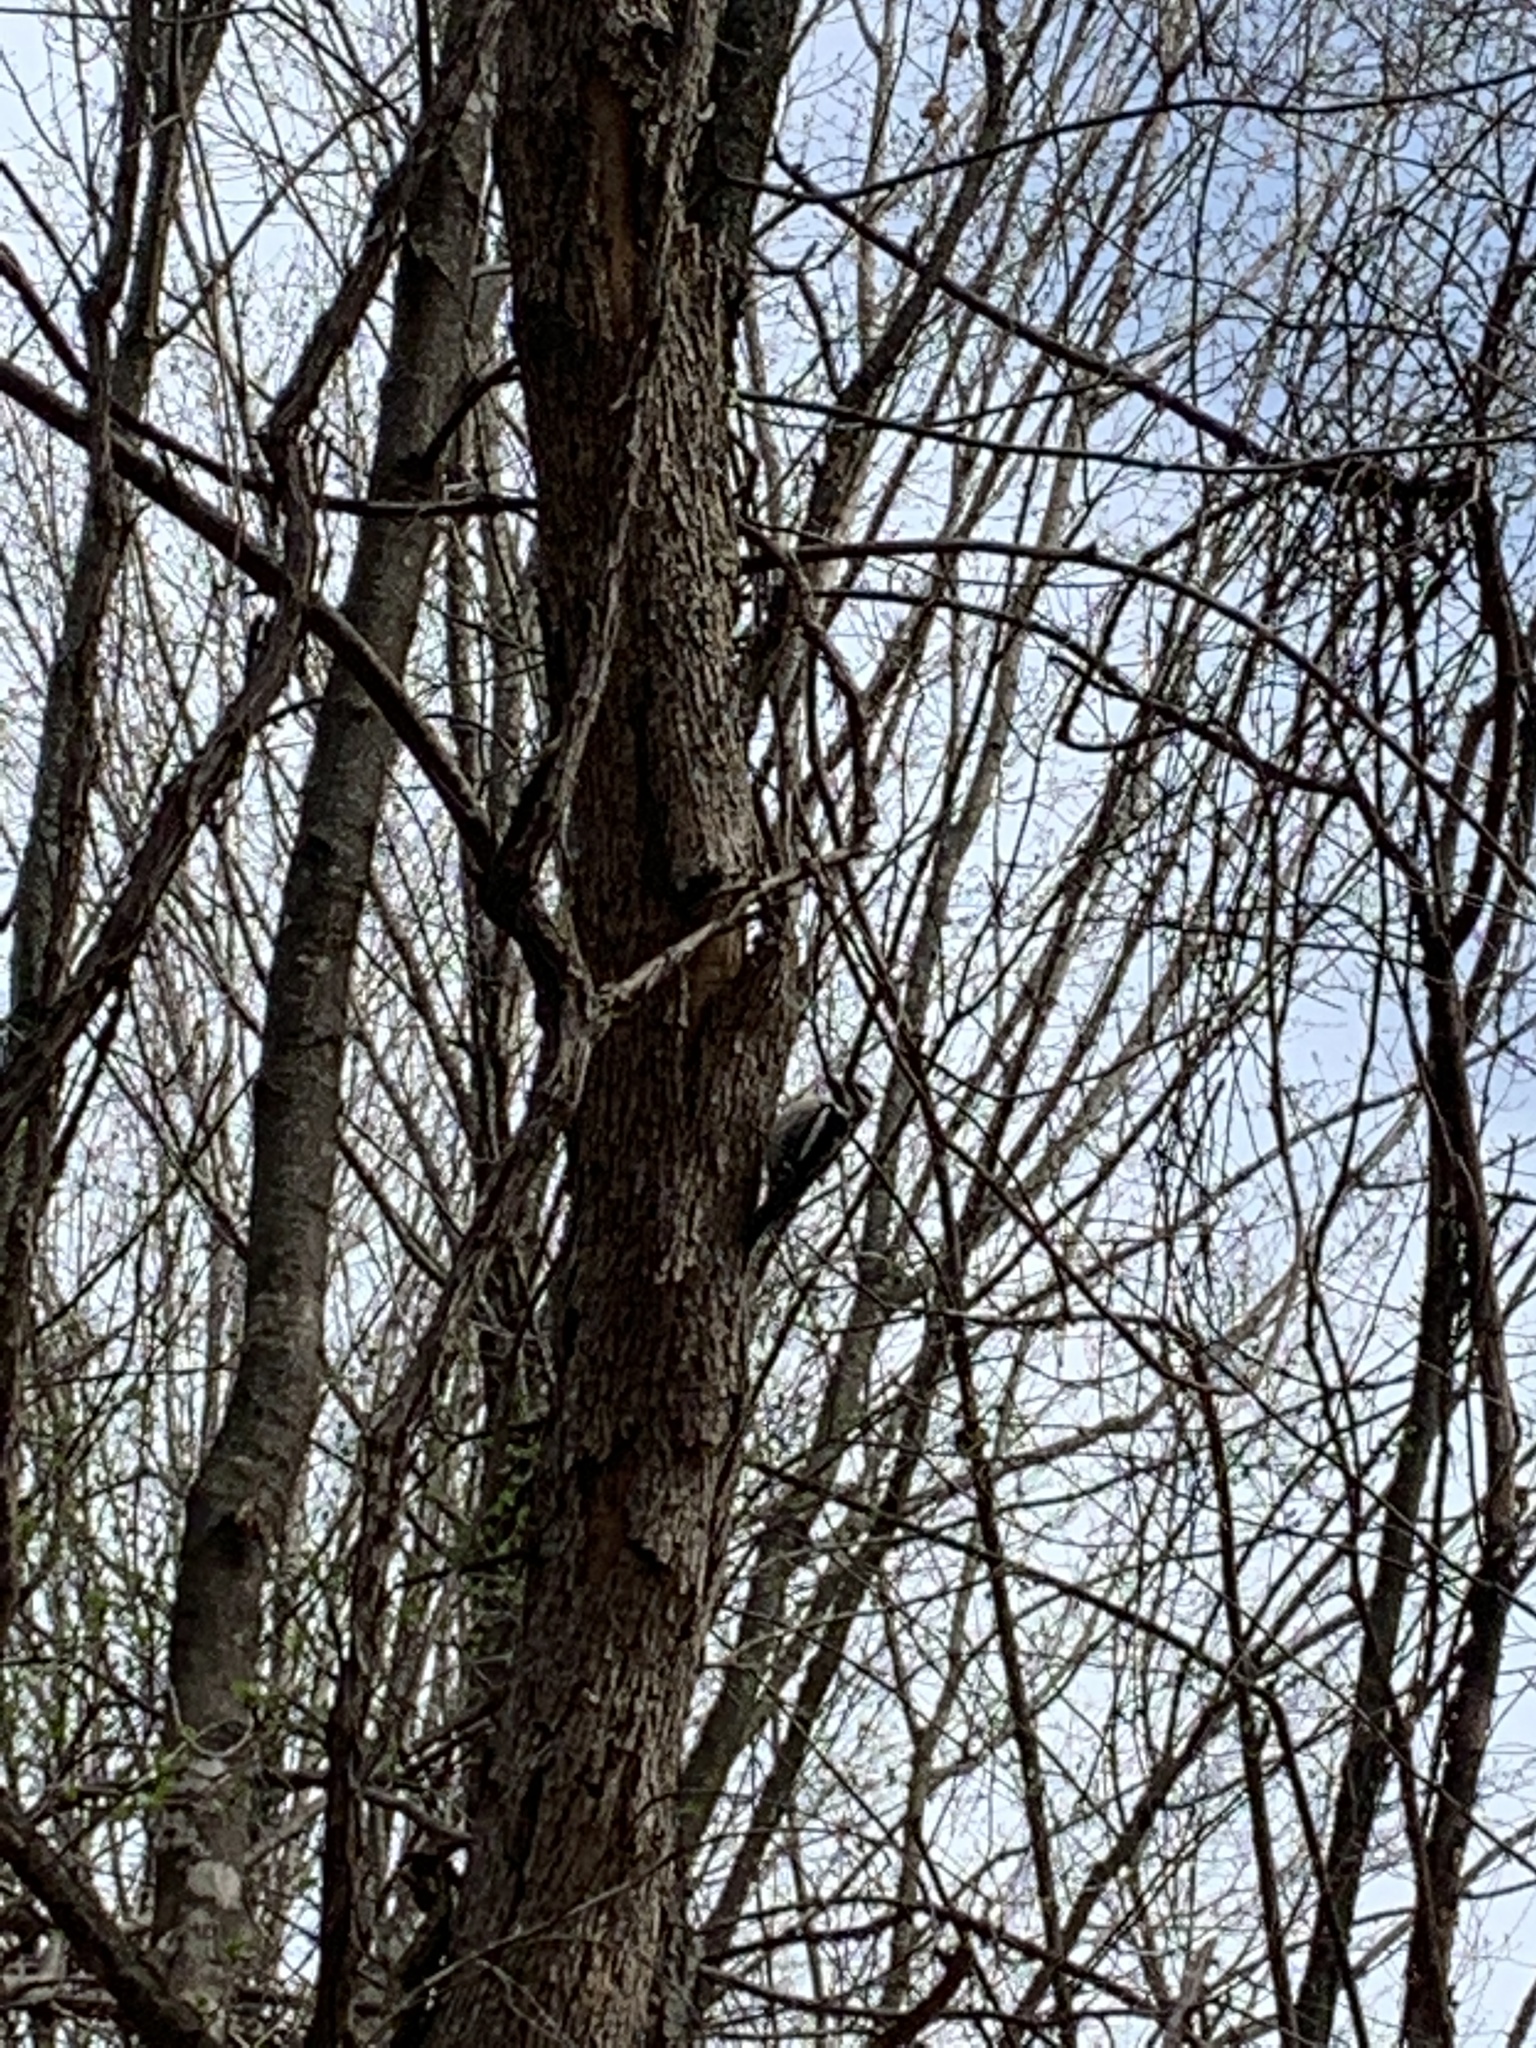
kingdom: Animalia
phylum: Chordata
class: Aves
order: Piciformes
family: Picidae
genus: Sphyrapicus
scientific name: Sphyrapicus varius
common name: Yellow-bellied sapsucker
